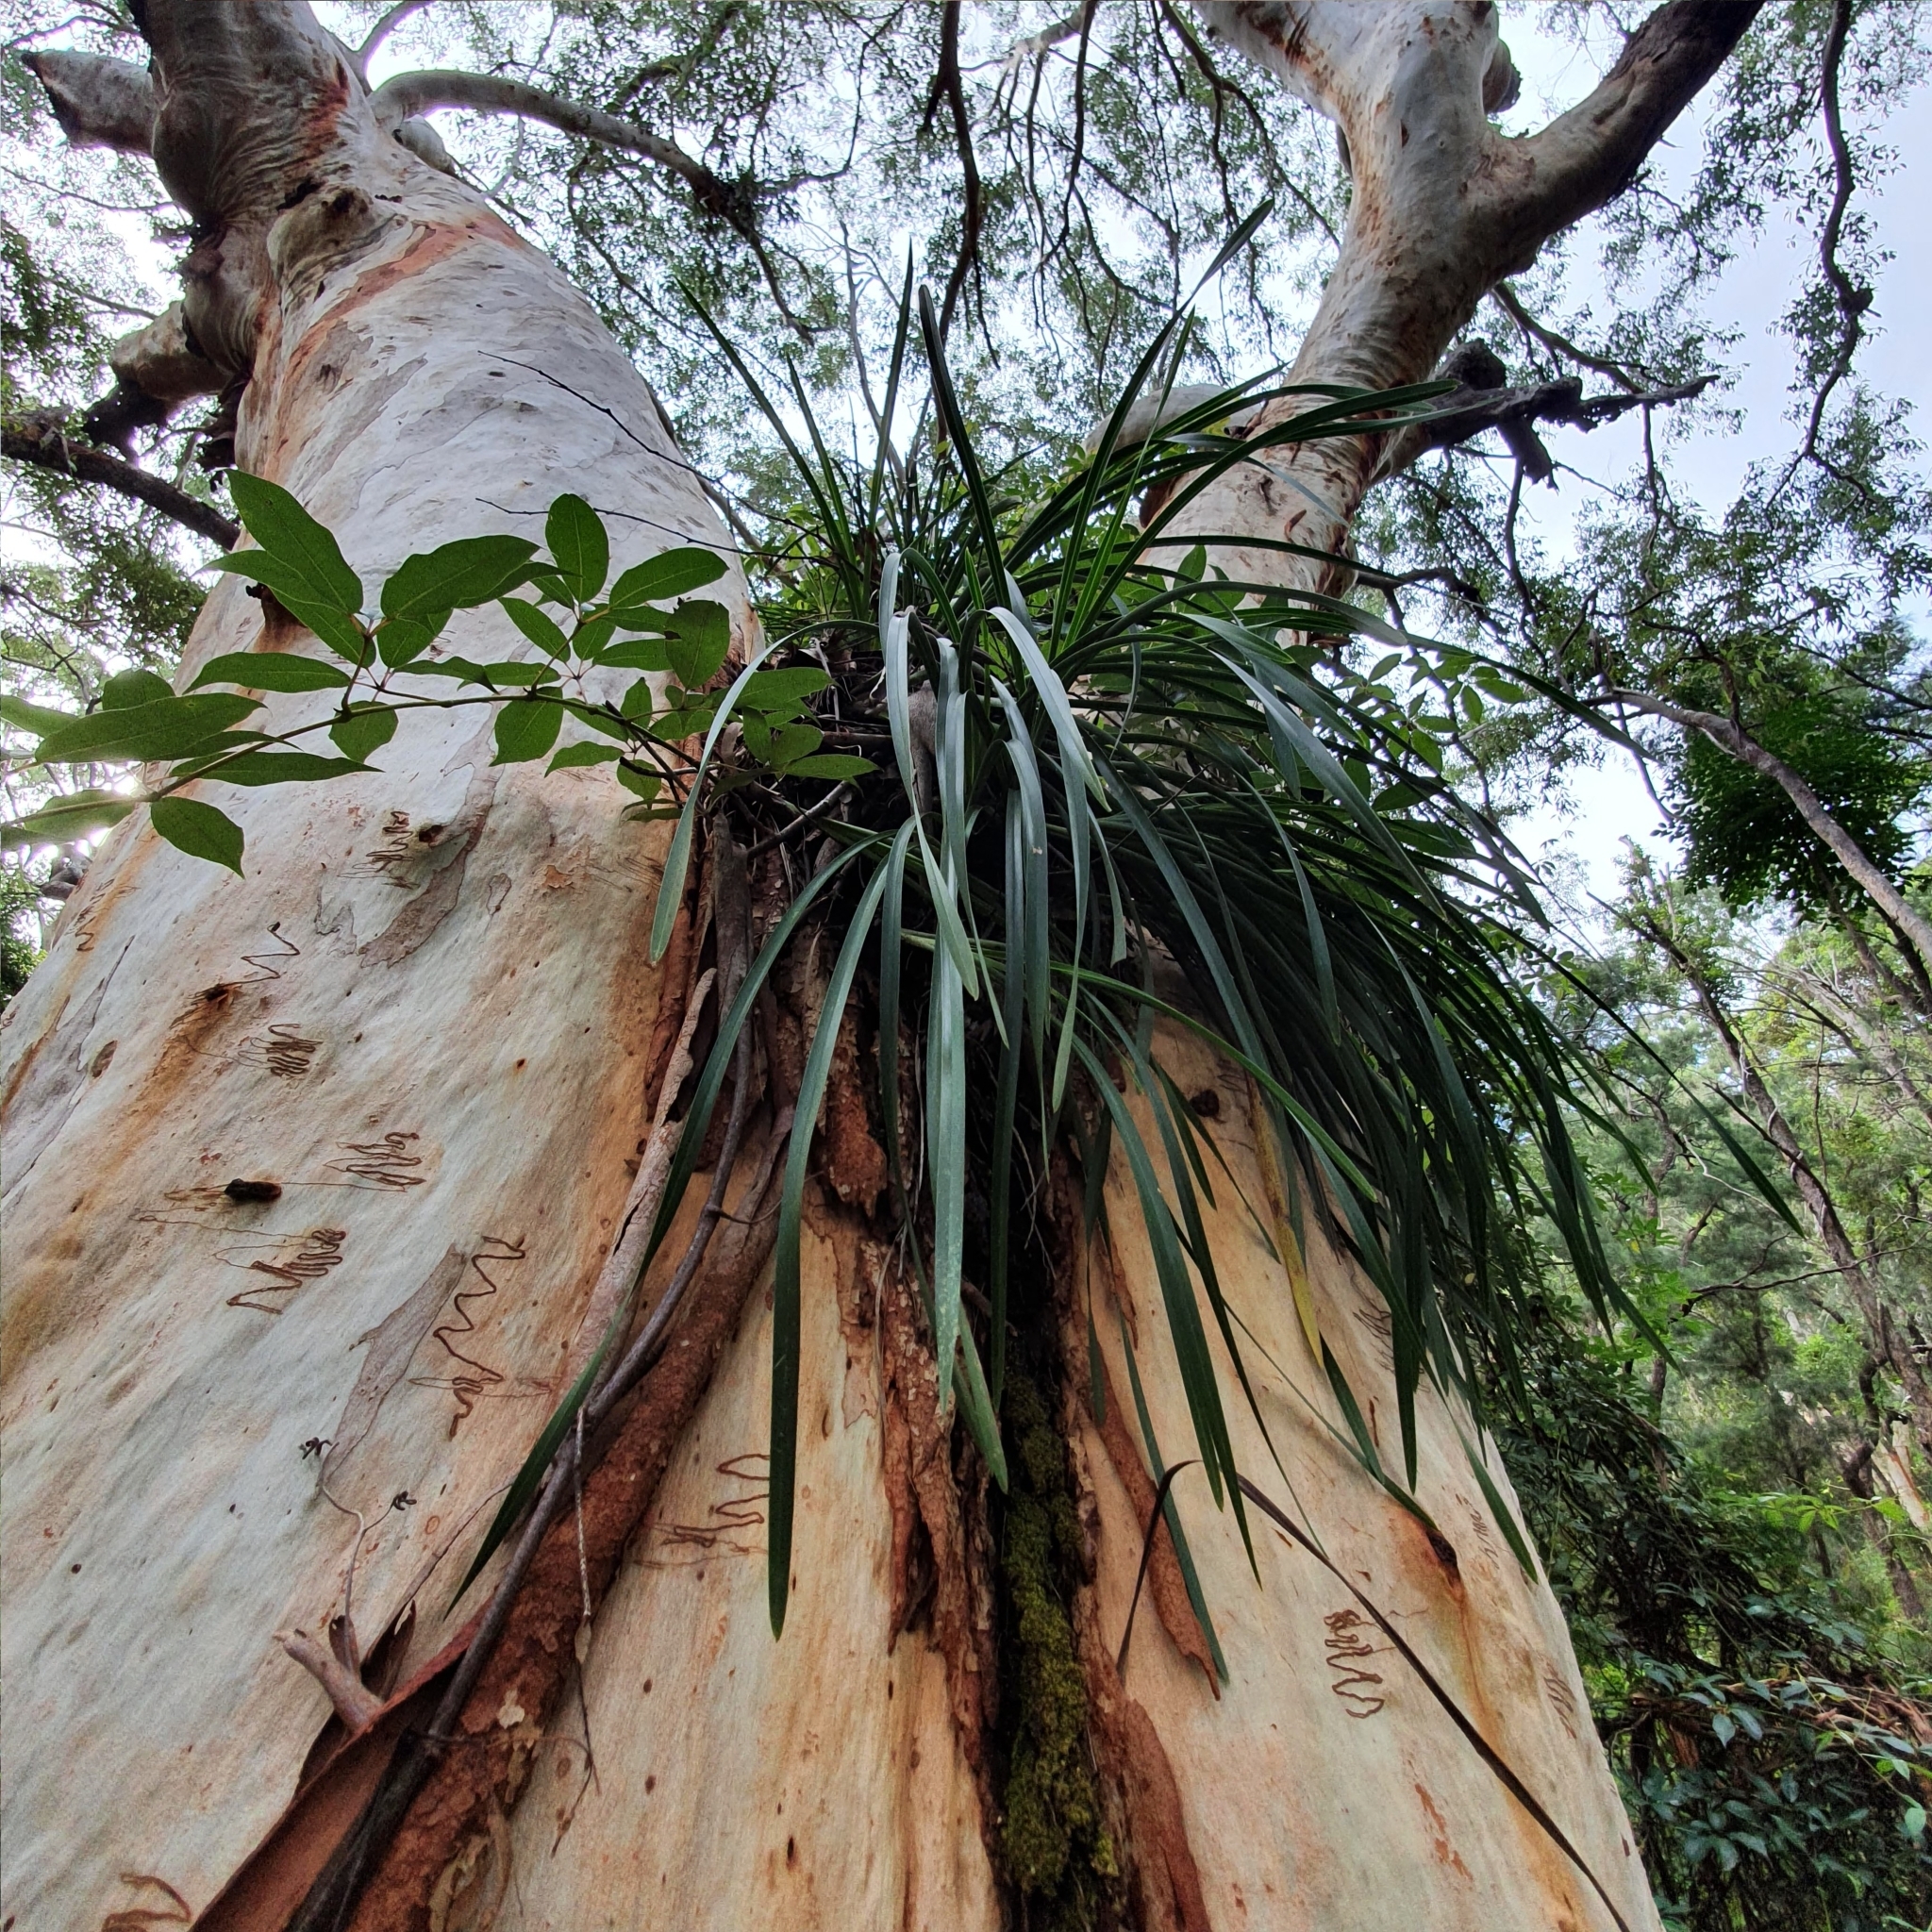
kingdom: Plantae
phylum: Tracheophyta
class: Liliopsida
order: Asparagales
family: Orchidaceae
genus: Cymbidium
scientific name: Cymbidium suave
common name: Snake orchid
